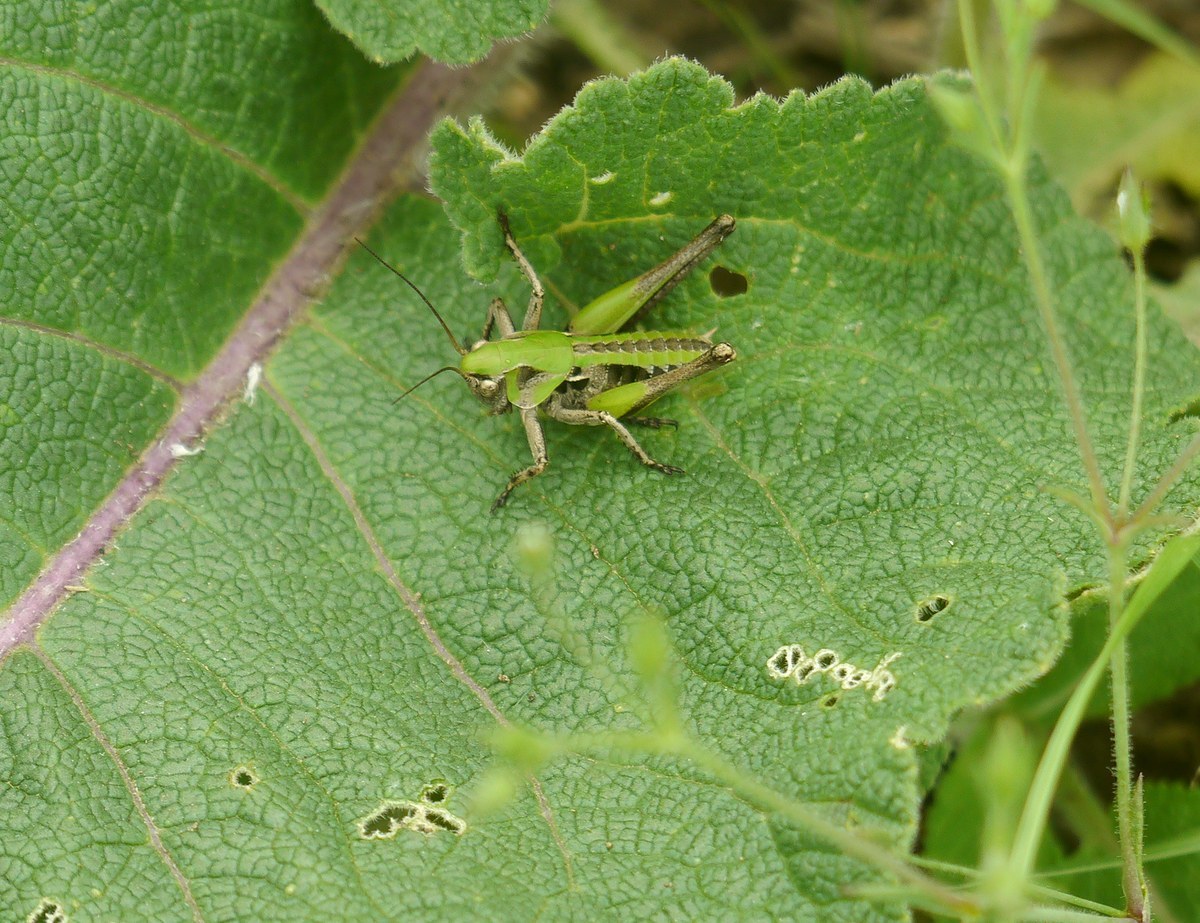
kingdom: Animalia
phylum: Arthropoda
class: Insecta
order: Orthoptera
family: Tettigoniidae
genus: Decticus
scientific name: Decticus verrucivorus
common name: Wart-biter
